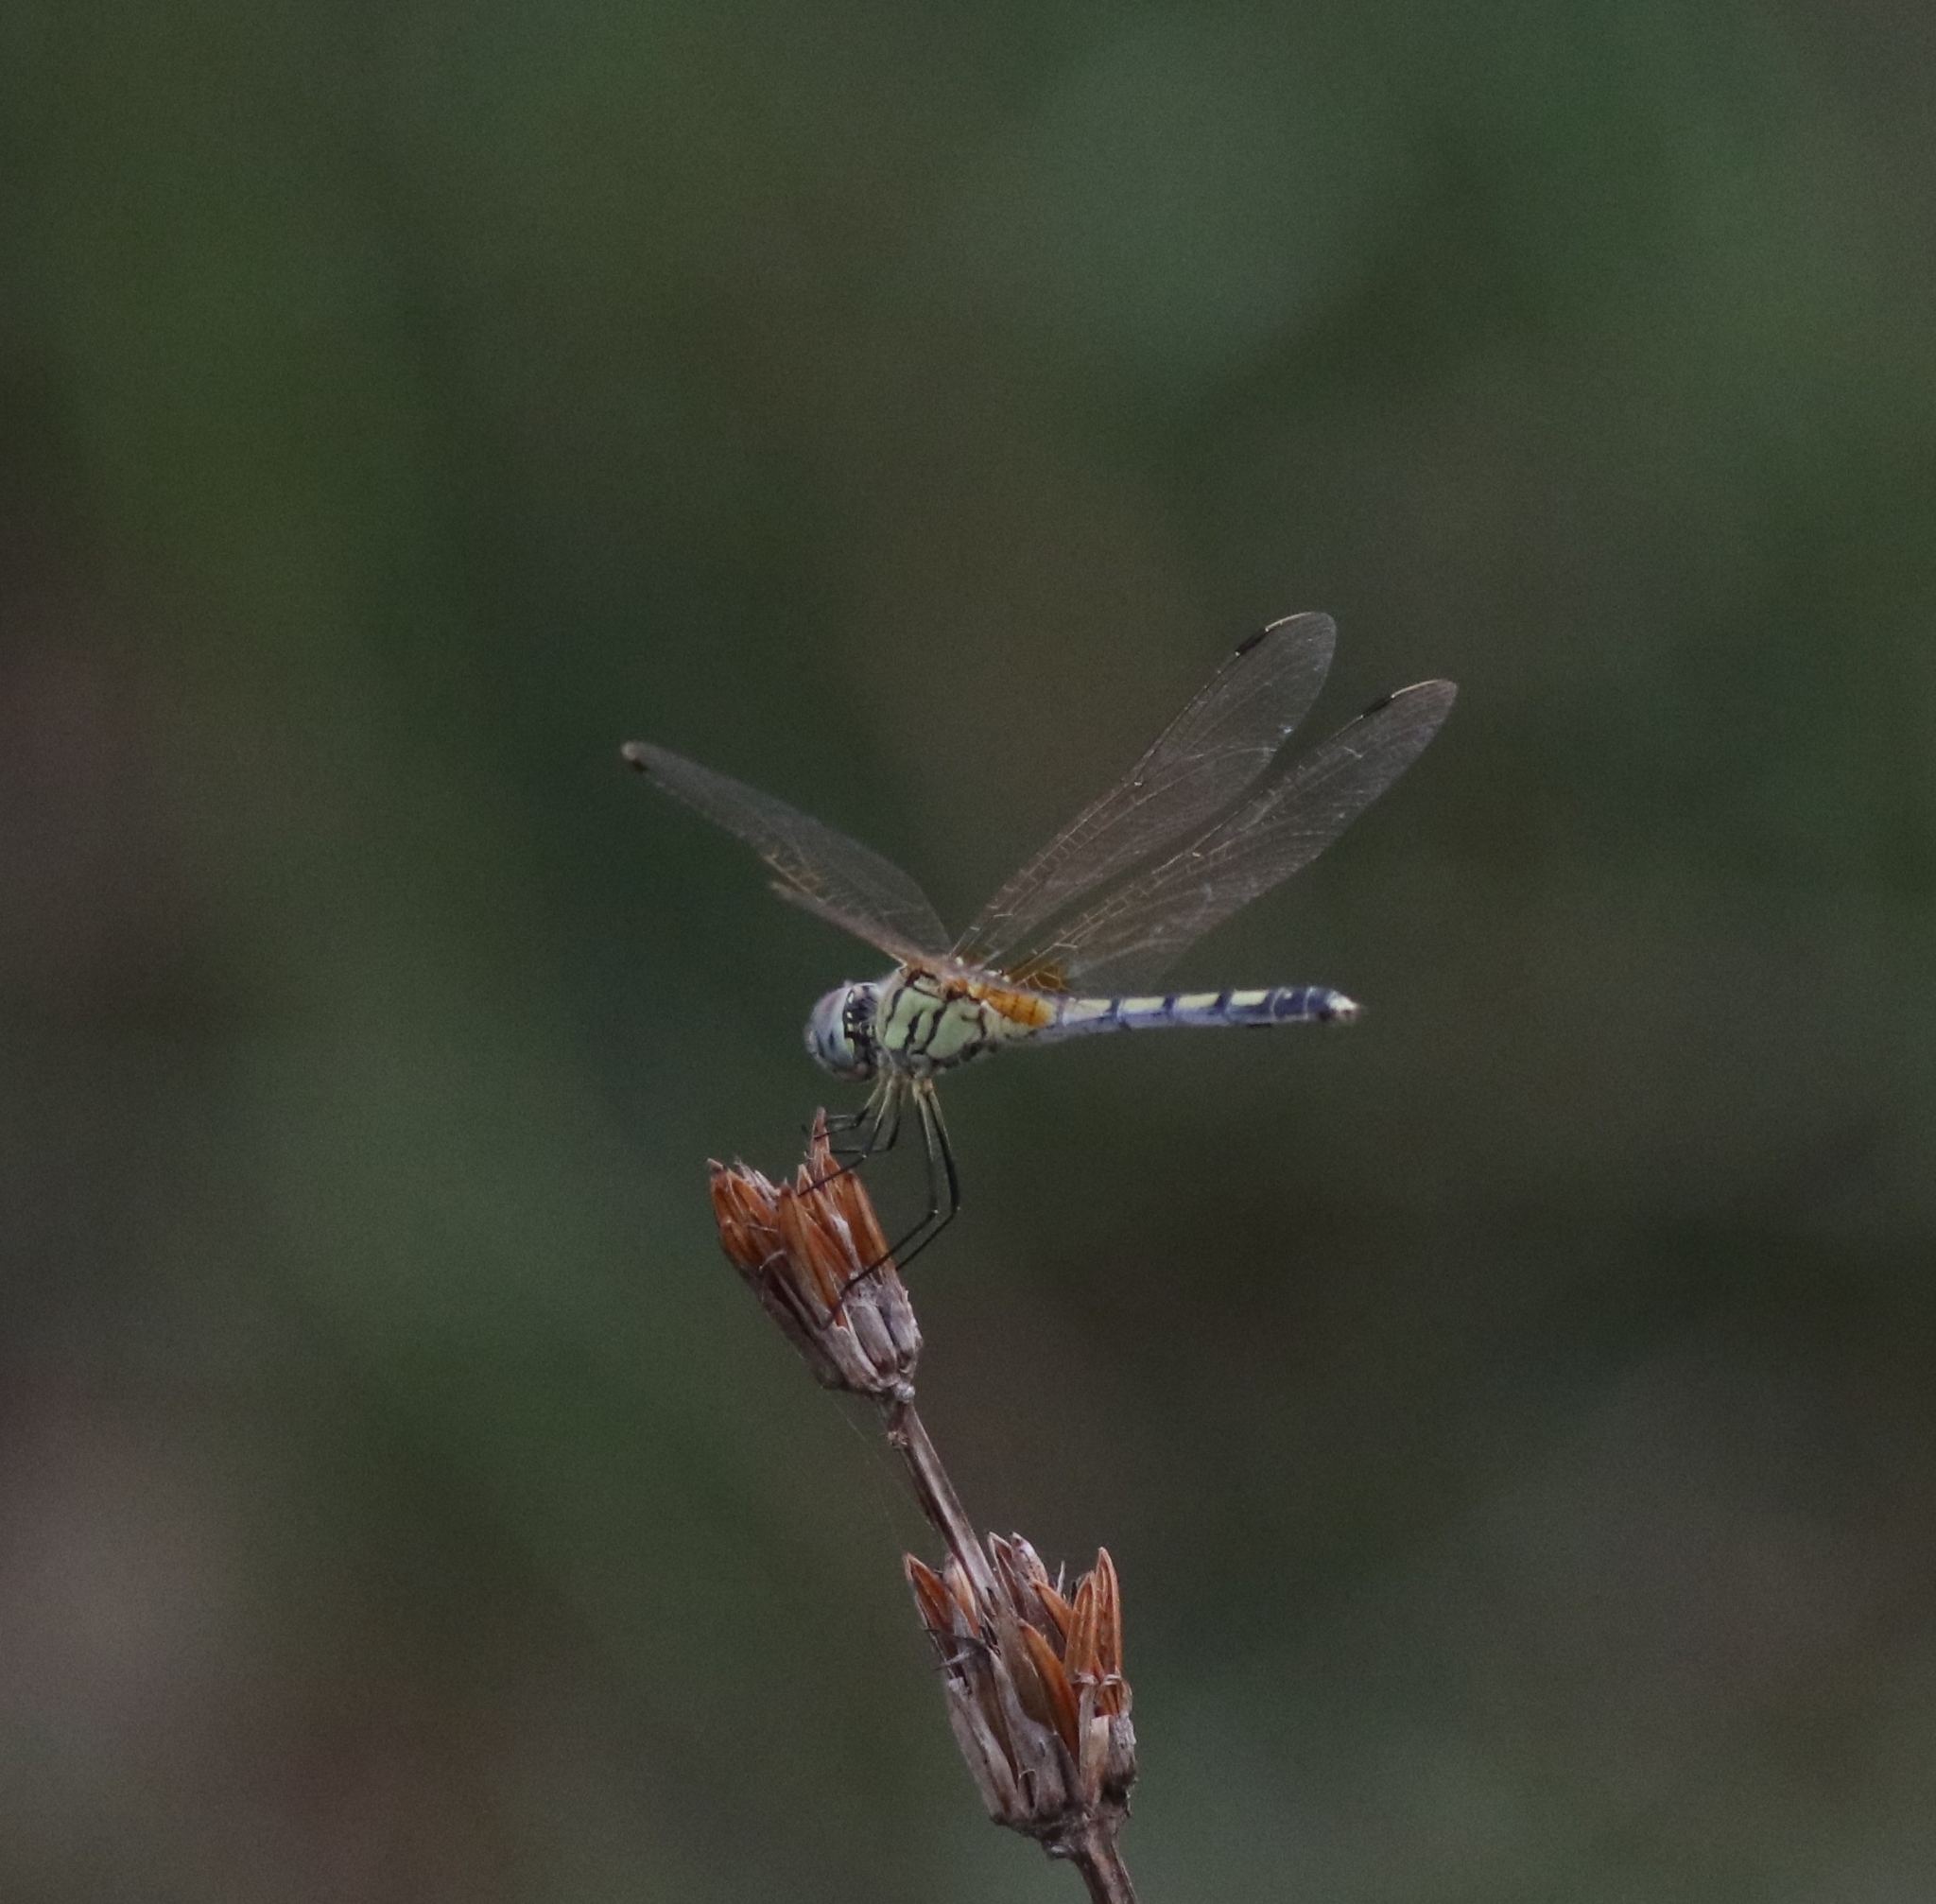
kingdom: Animalia
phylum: Arthropoda
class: Insecta
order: Odonata
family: Libellulidae
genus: Trithemis
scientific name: Trithemis pallidinervis
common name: Dancing dropwing
